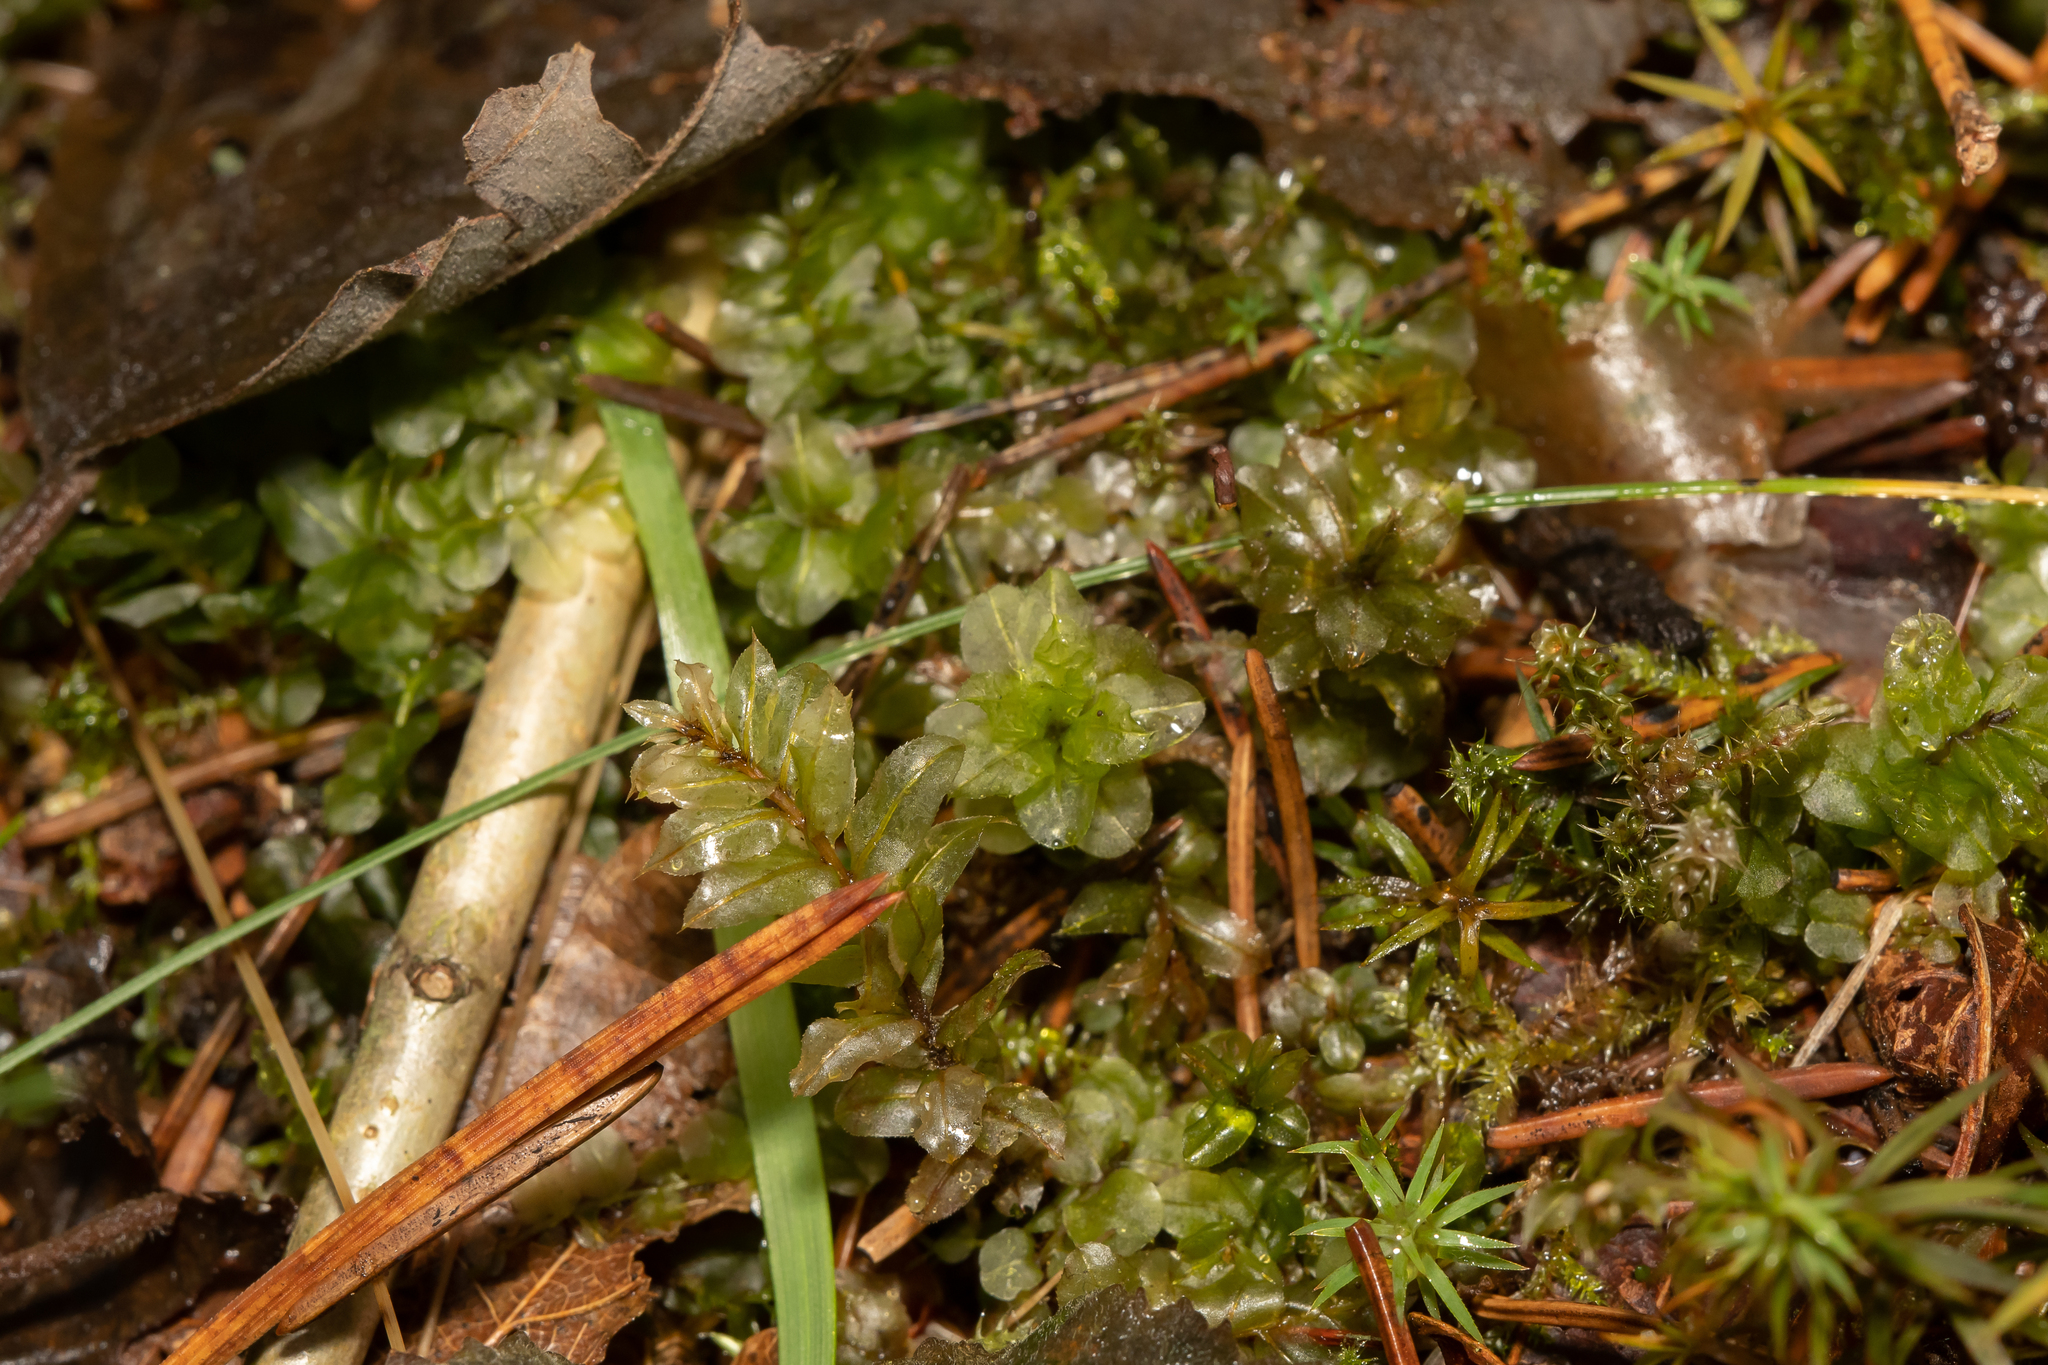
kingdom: Plantae
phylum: Bryophyta
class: Bryopsida
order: Bryales
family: Mniaceae
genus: Plagiomnium
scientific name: Plagiomnium affine
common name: Many-fruited thyme-moss
